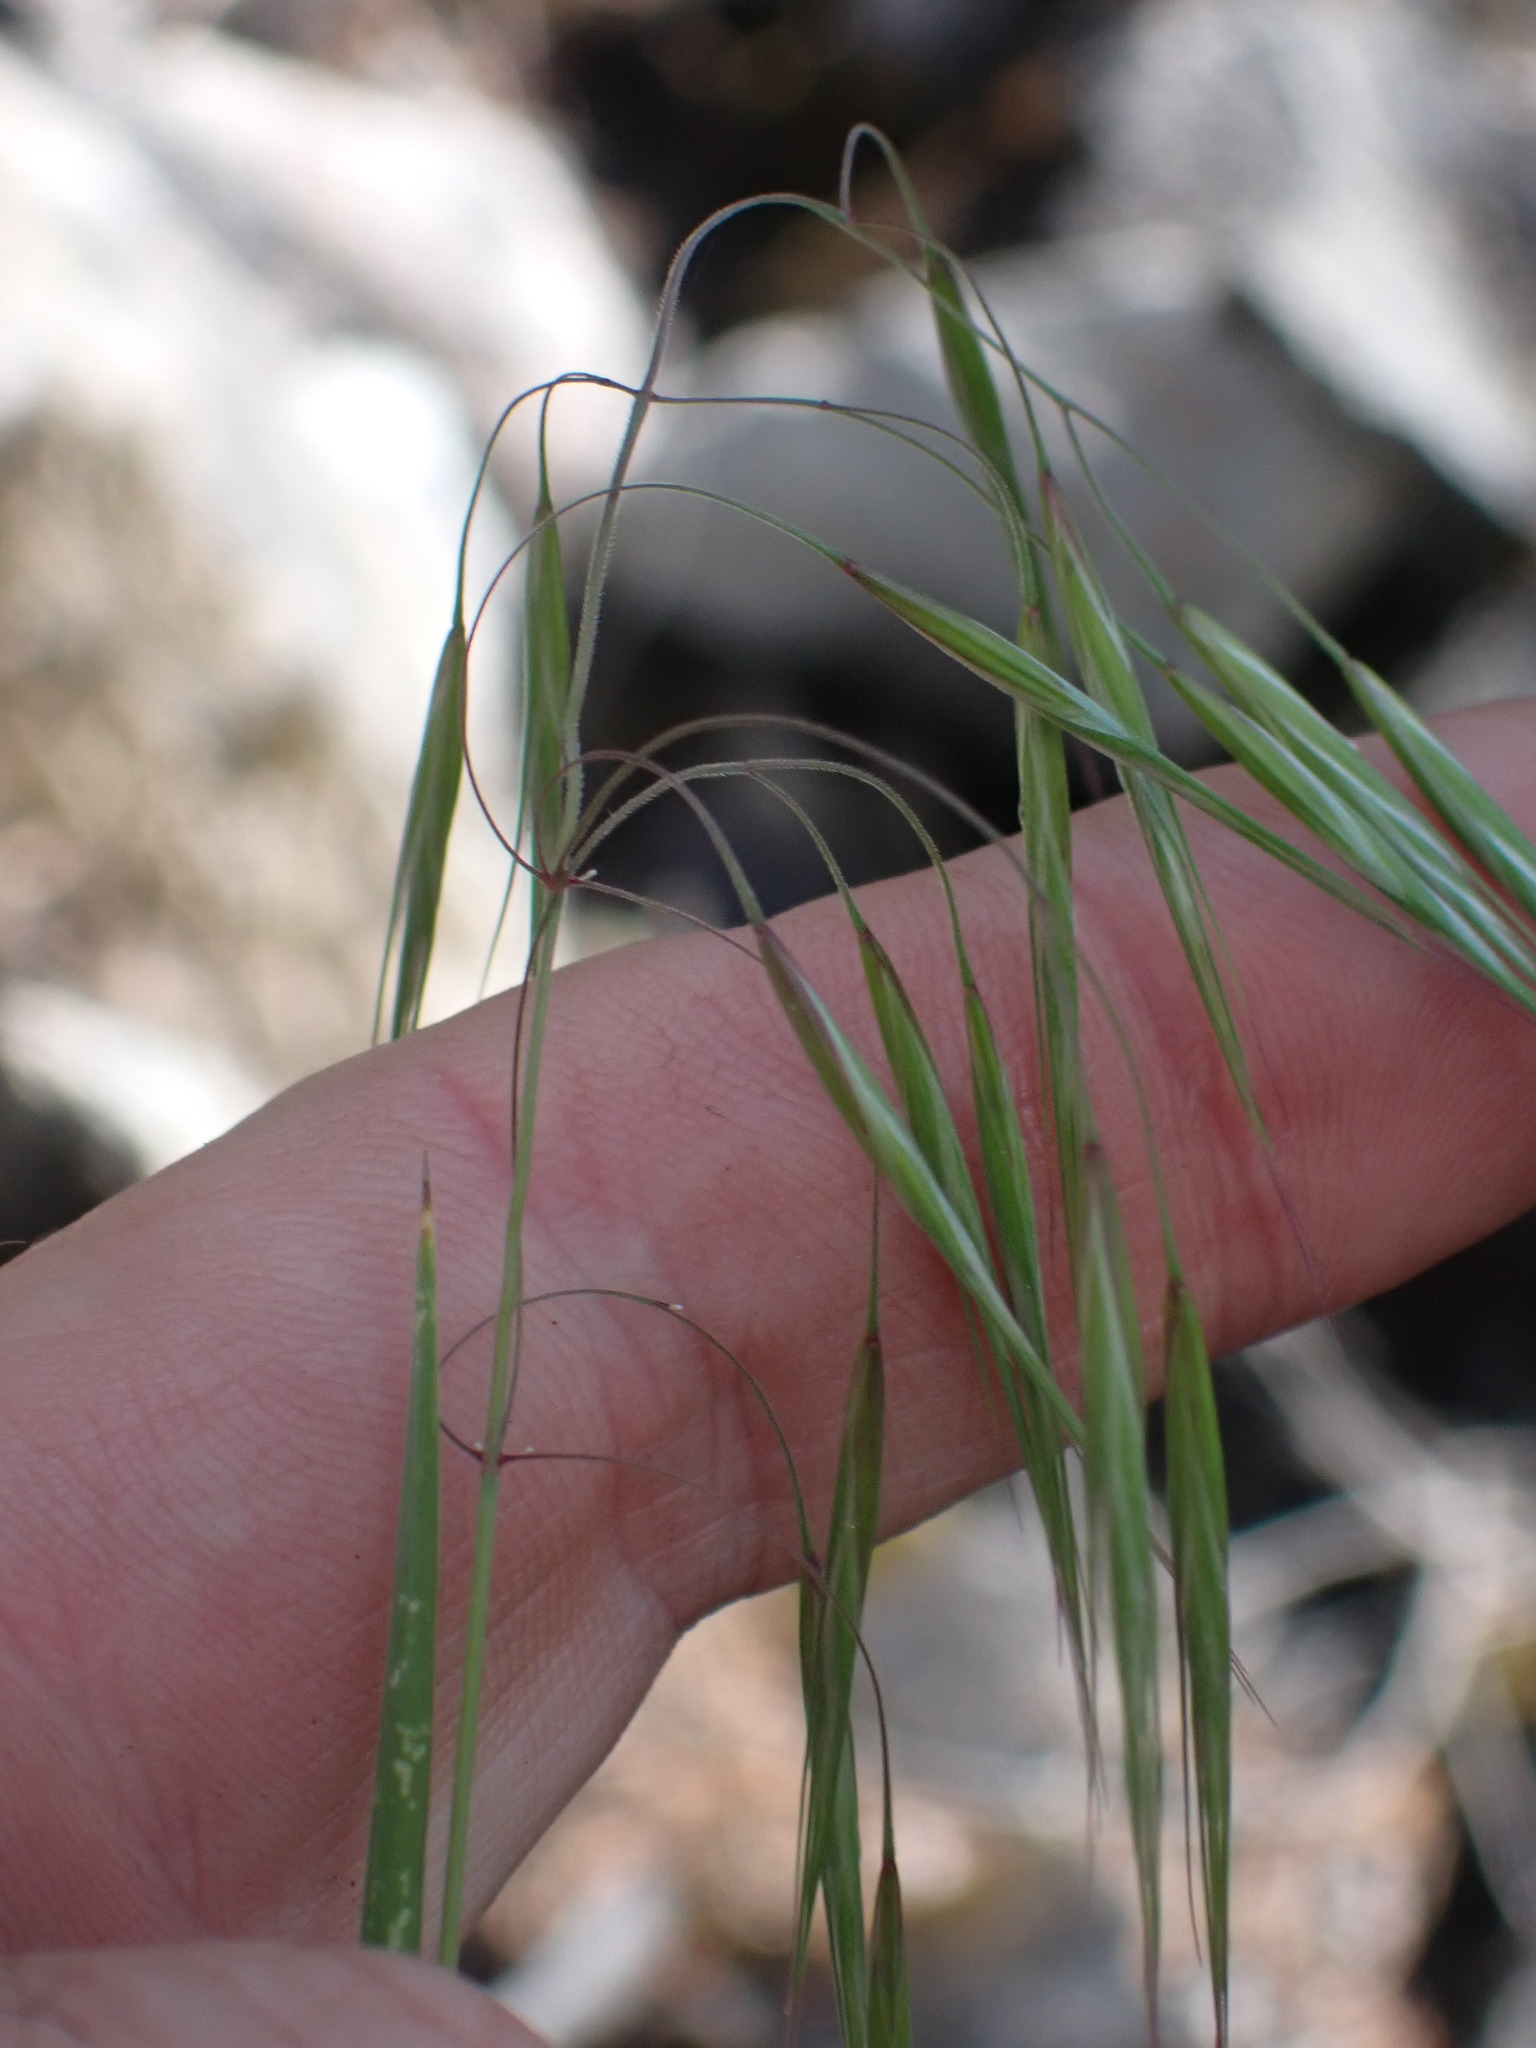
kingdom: Plantae
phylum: Tracheophyta
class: Liliopsida
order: Poales
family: Poaceae
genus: Bromus
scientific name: Bromus tectorum
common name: Cheatgrass
